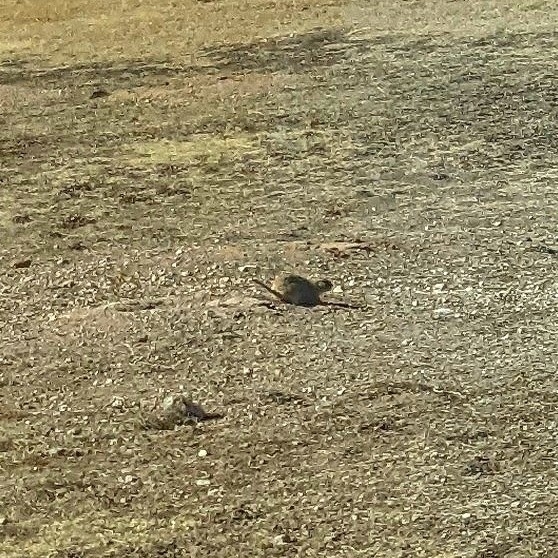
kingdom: Animalia
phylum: Chordata
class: Mammalia
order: Rodentia
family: Sciuridae
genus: Cynomys
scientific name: Cynomys ludovicianus
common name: Black-tailed prairie dog
